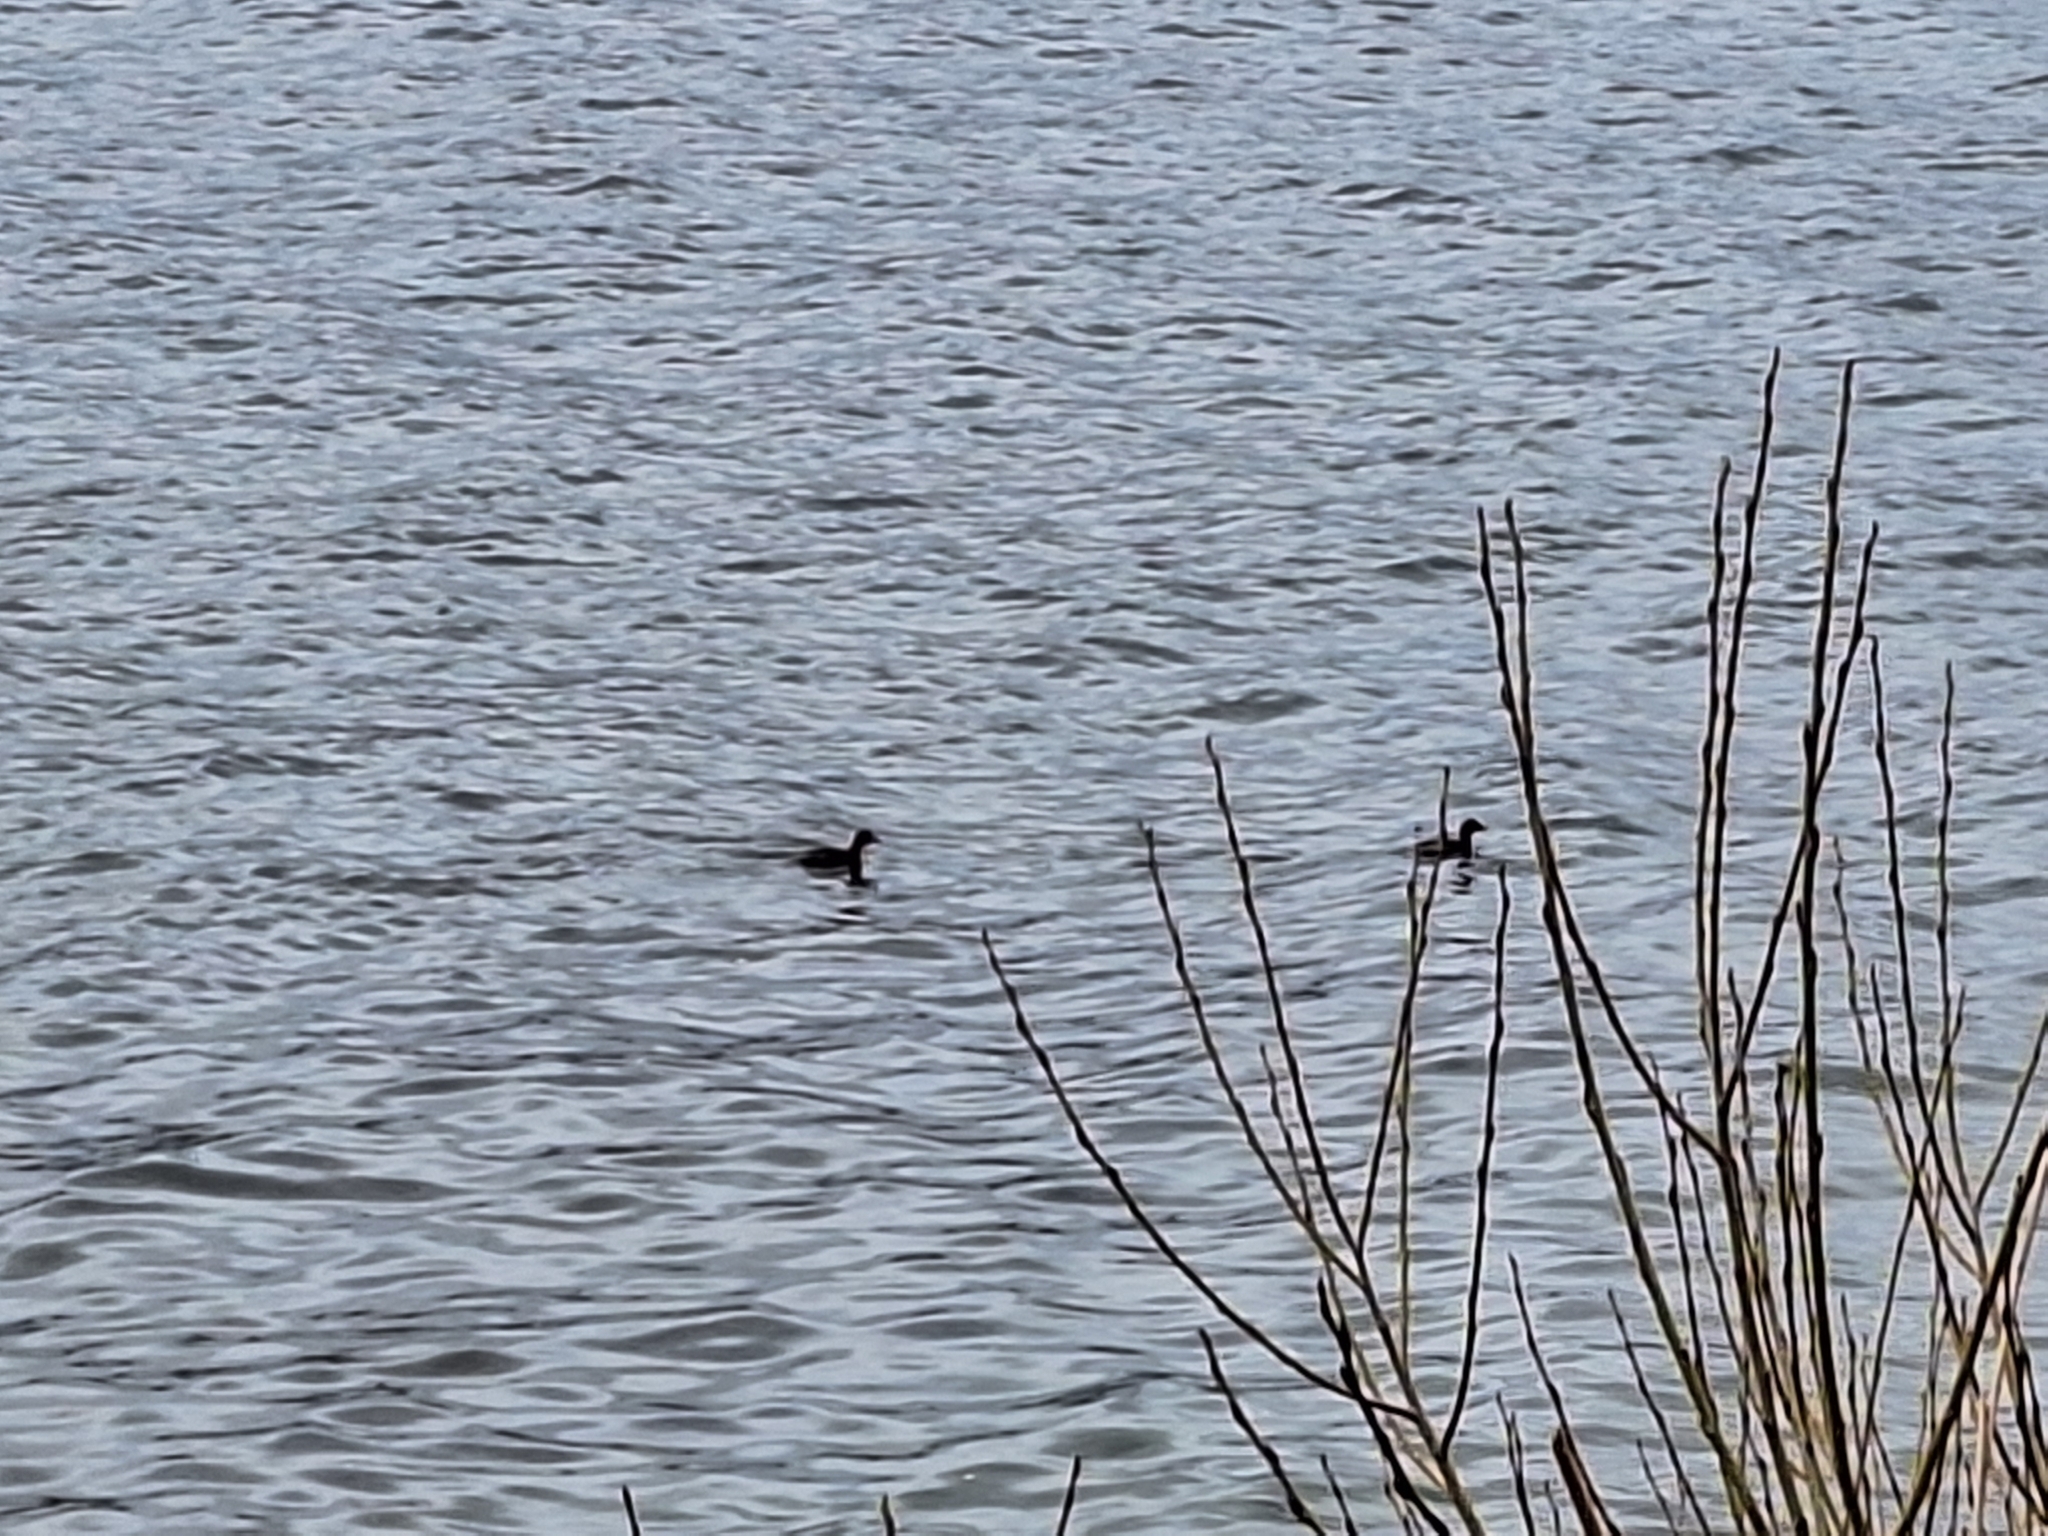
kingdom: Animalia
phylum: Chordata
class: Aves
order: Podicipediformes
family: Podicipedidae
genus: Tachybaptus
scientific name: Tachybaptus ruficollis
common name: Little grebe
